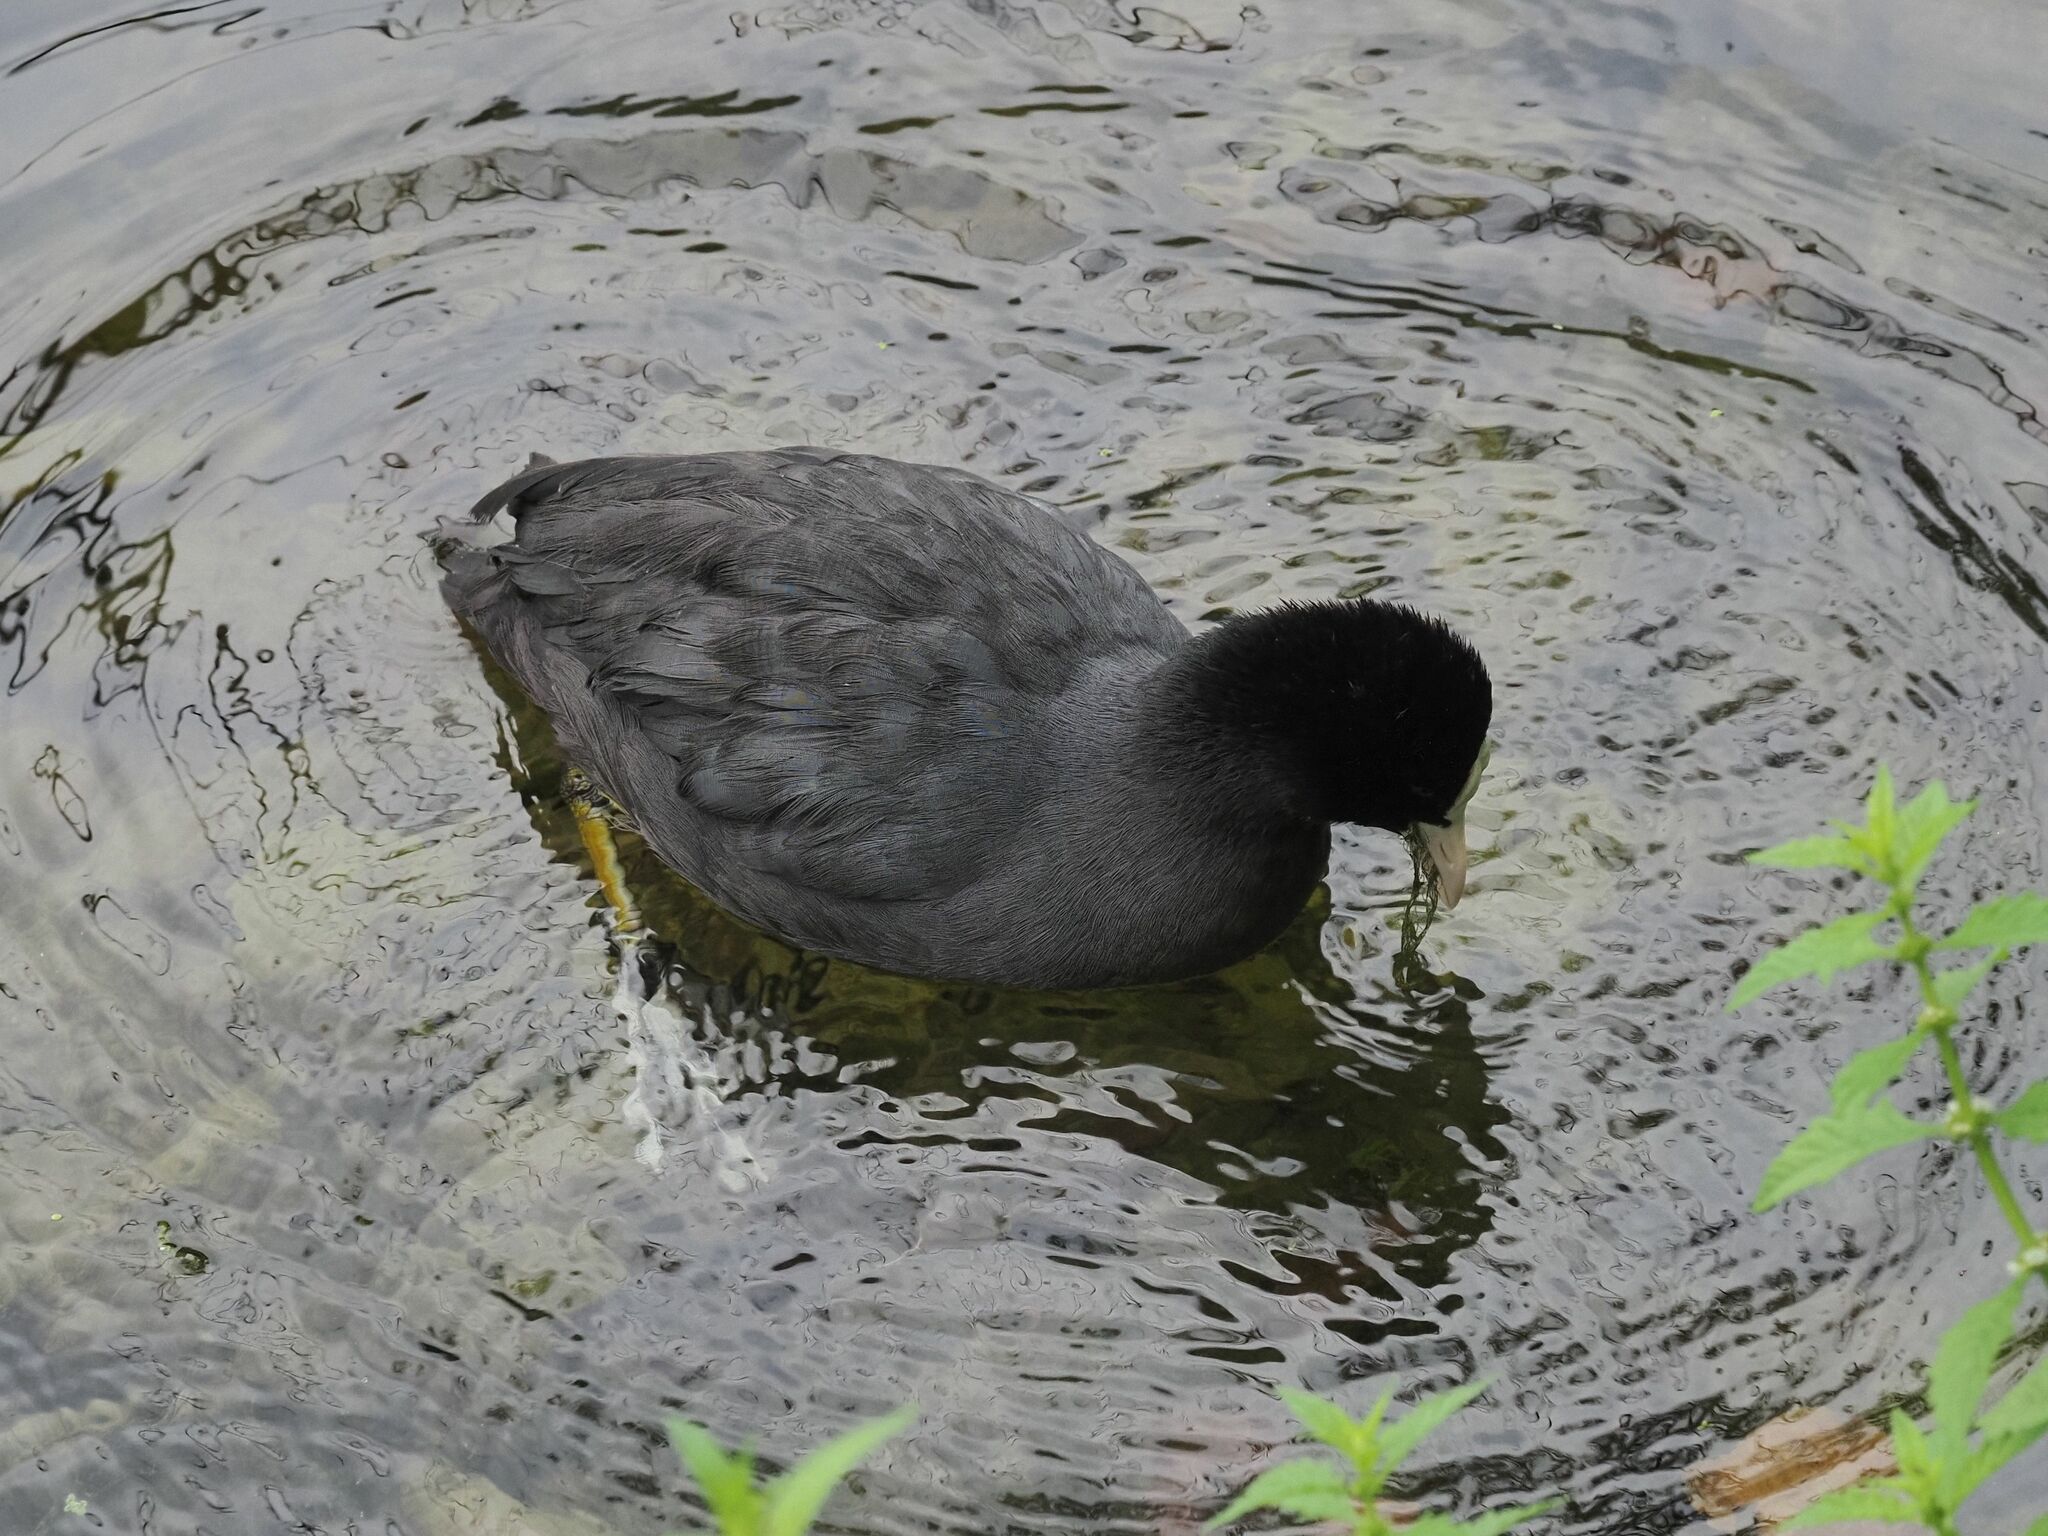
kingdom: Animalia
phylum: Chordata
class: Aves
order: Gruiformes
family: Rallidae
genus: Fulica
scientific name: Fulica atra
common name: Eurasian coot
